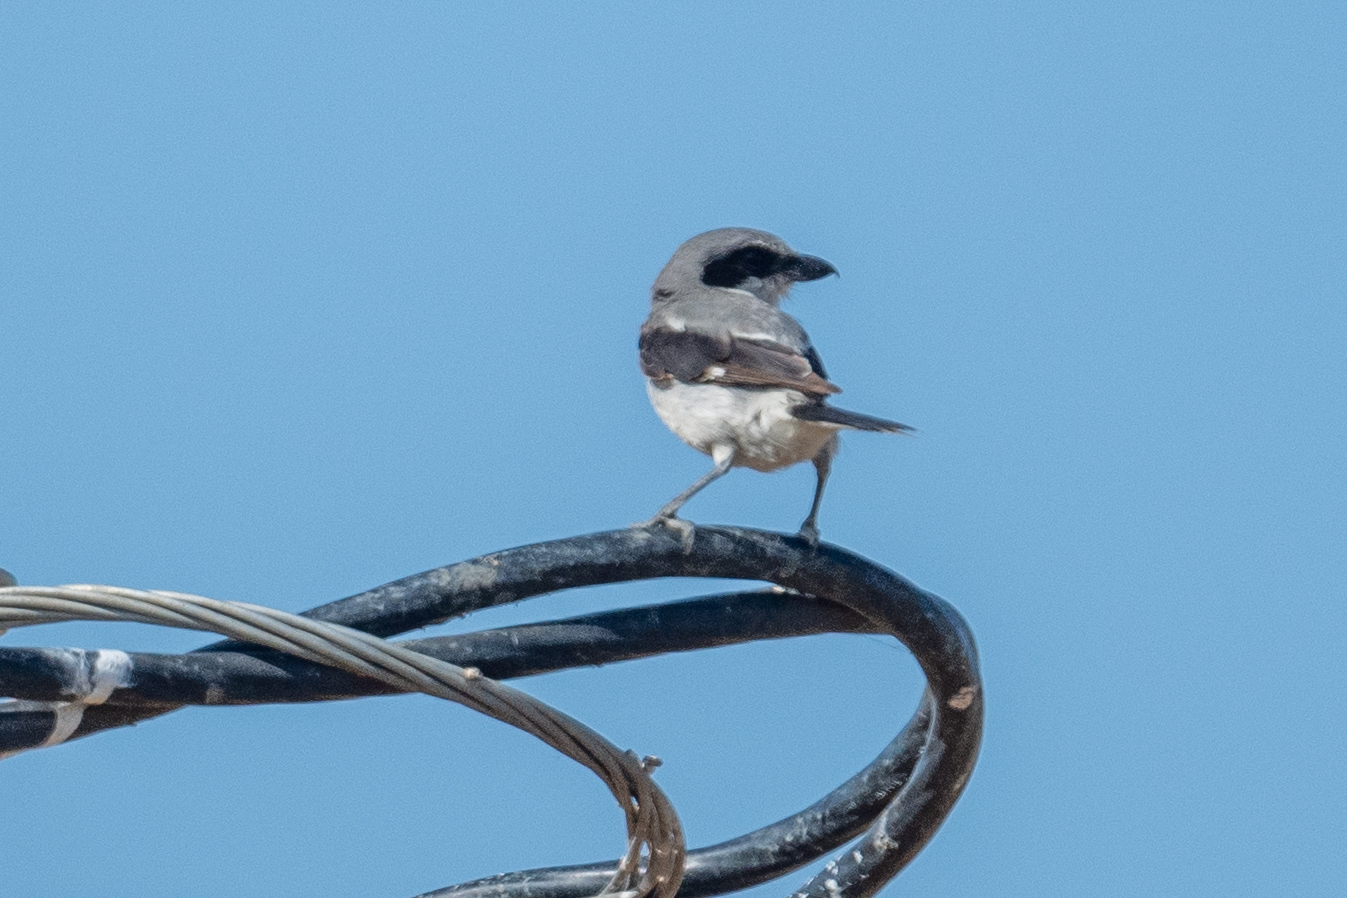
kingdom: Animalia
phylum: Chordata
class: Aves
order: Passeriformes
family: Laniidae
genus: Lanius
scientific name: Lanius ludovicianus
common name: Loggerhead shrike
